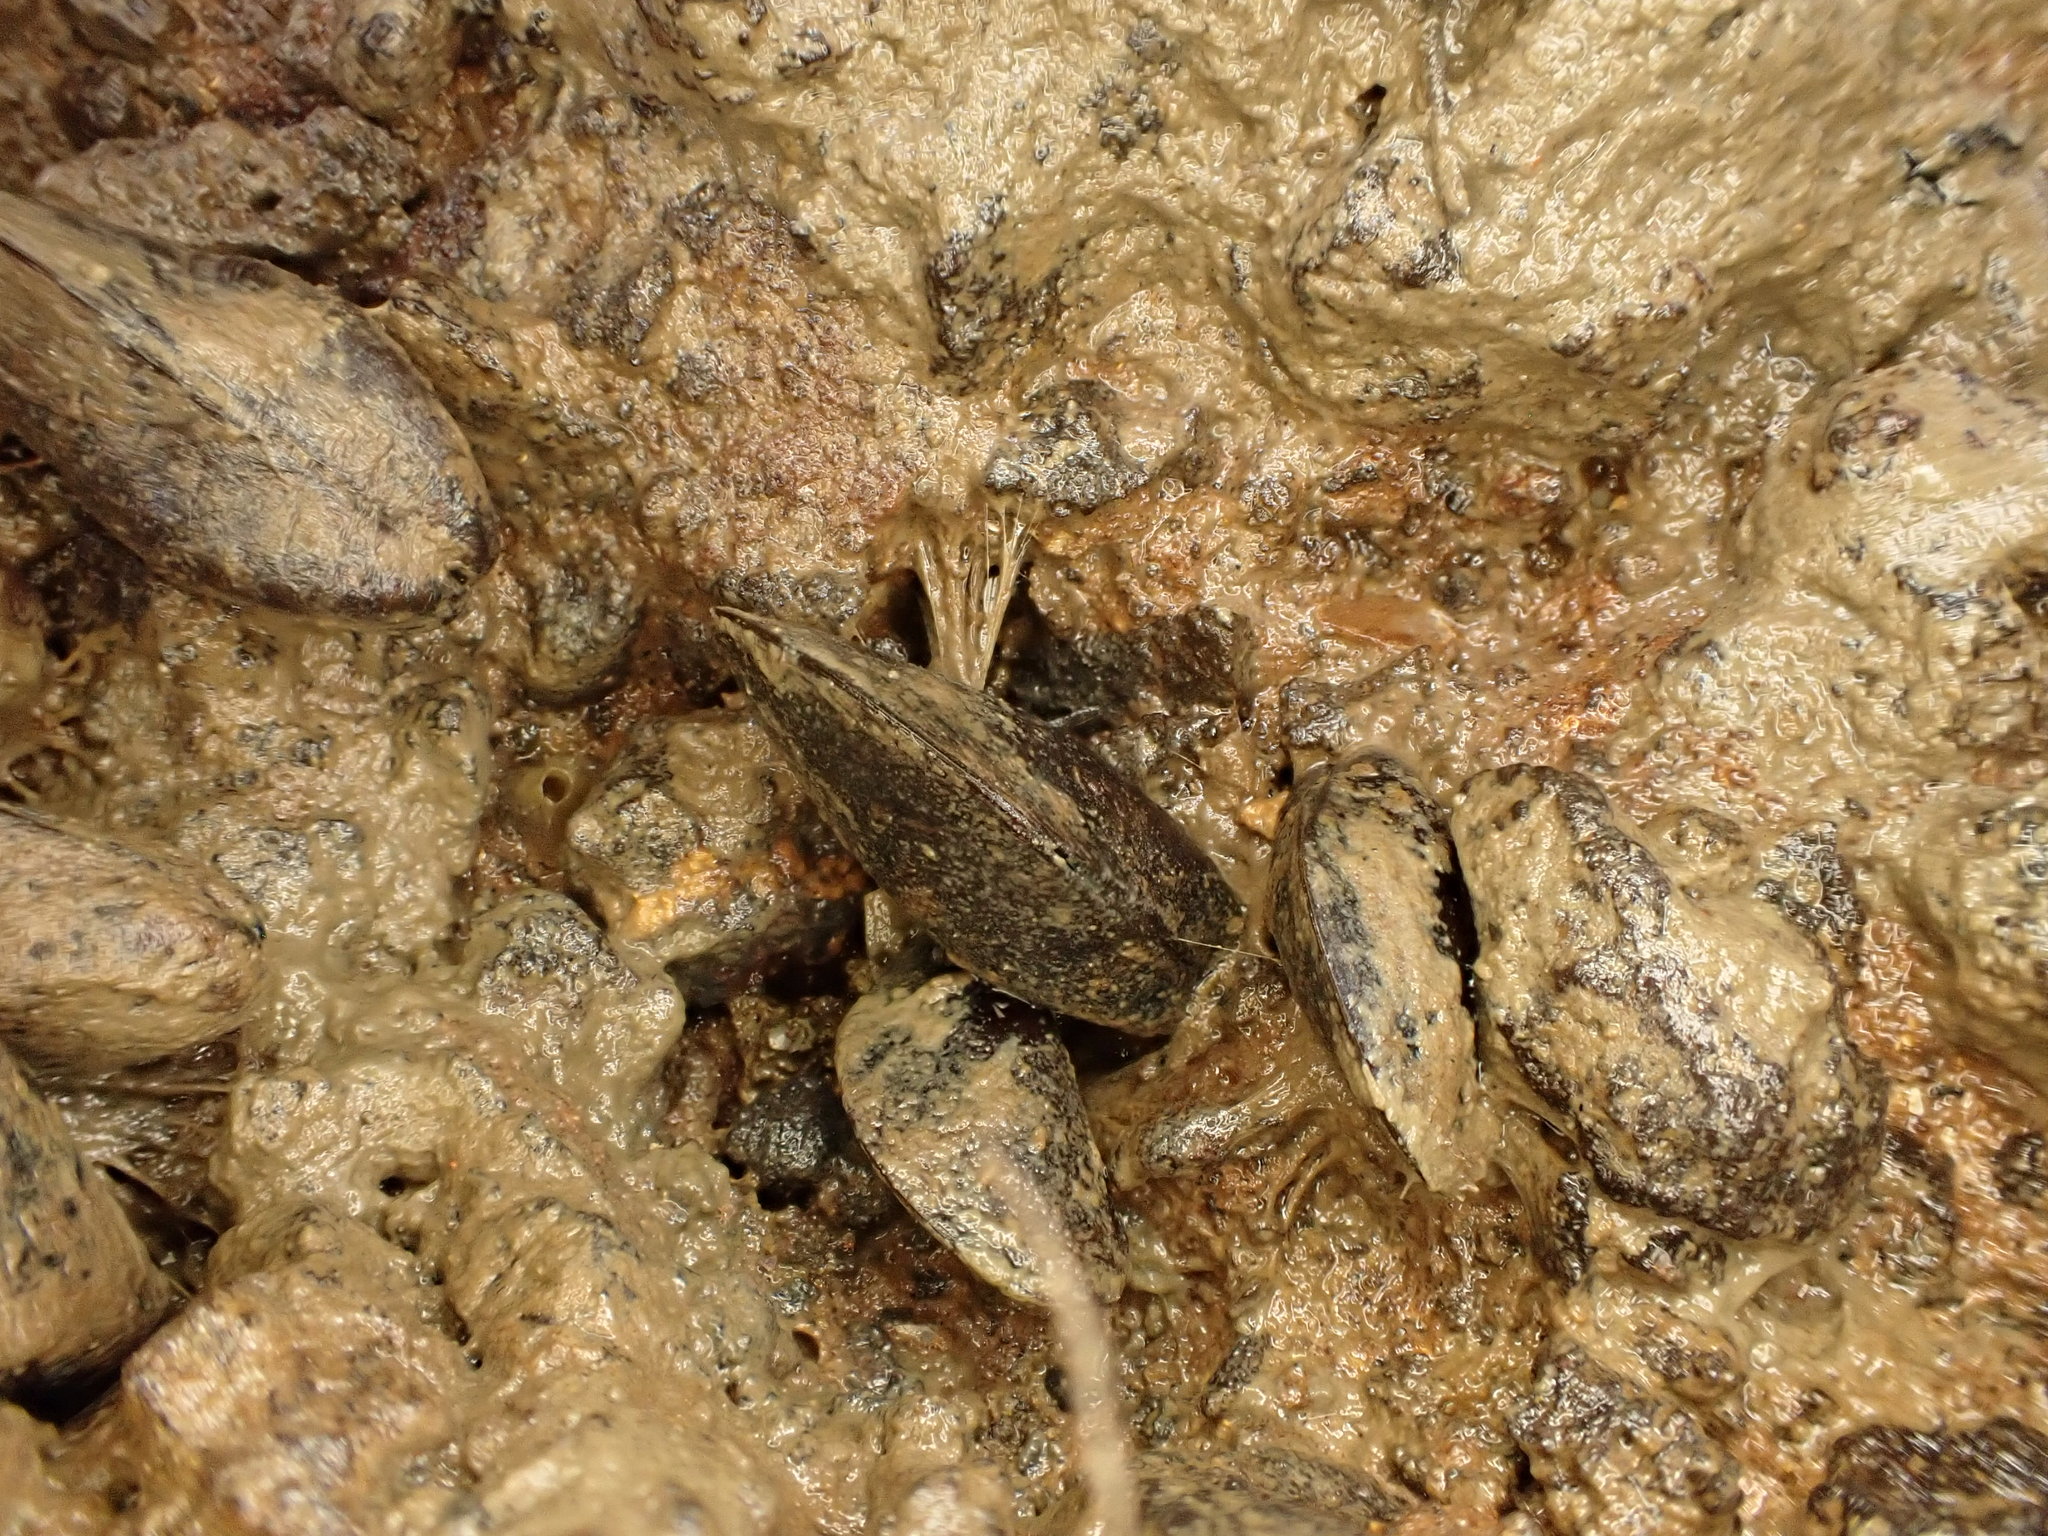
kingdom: Animalia
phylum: Mollusca
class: Bivalvia
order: Mytilida
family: Mytilidae
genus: Xenostrobus
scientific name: Xenostrobus securis
